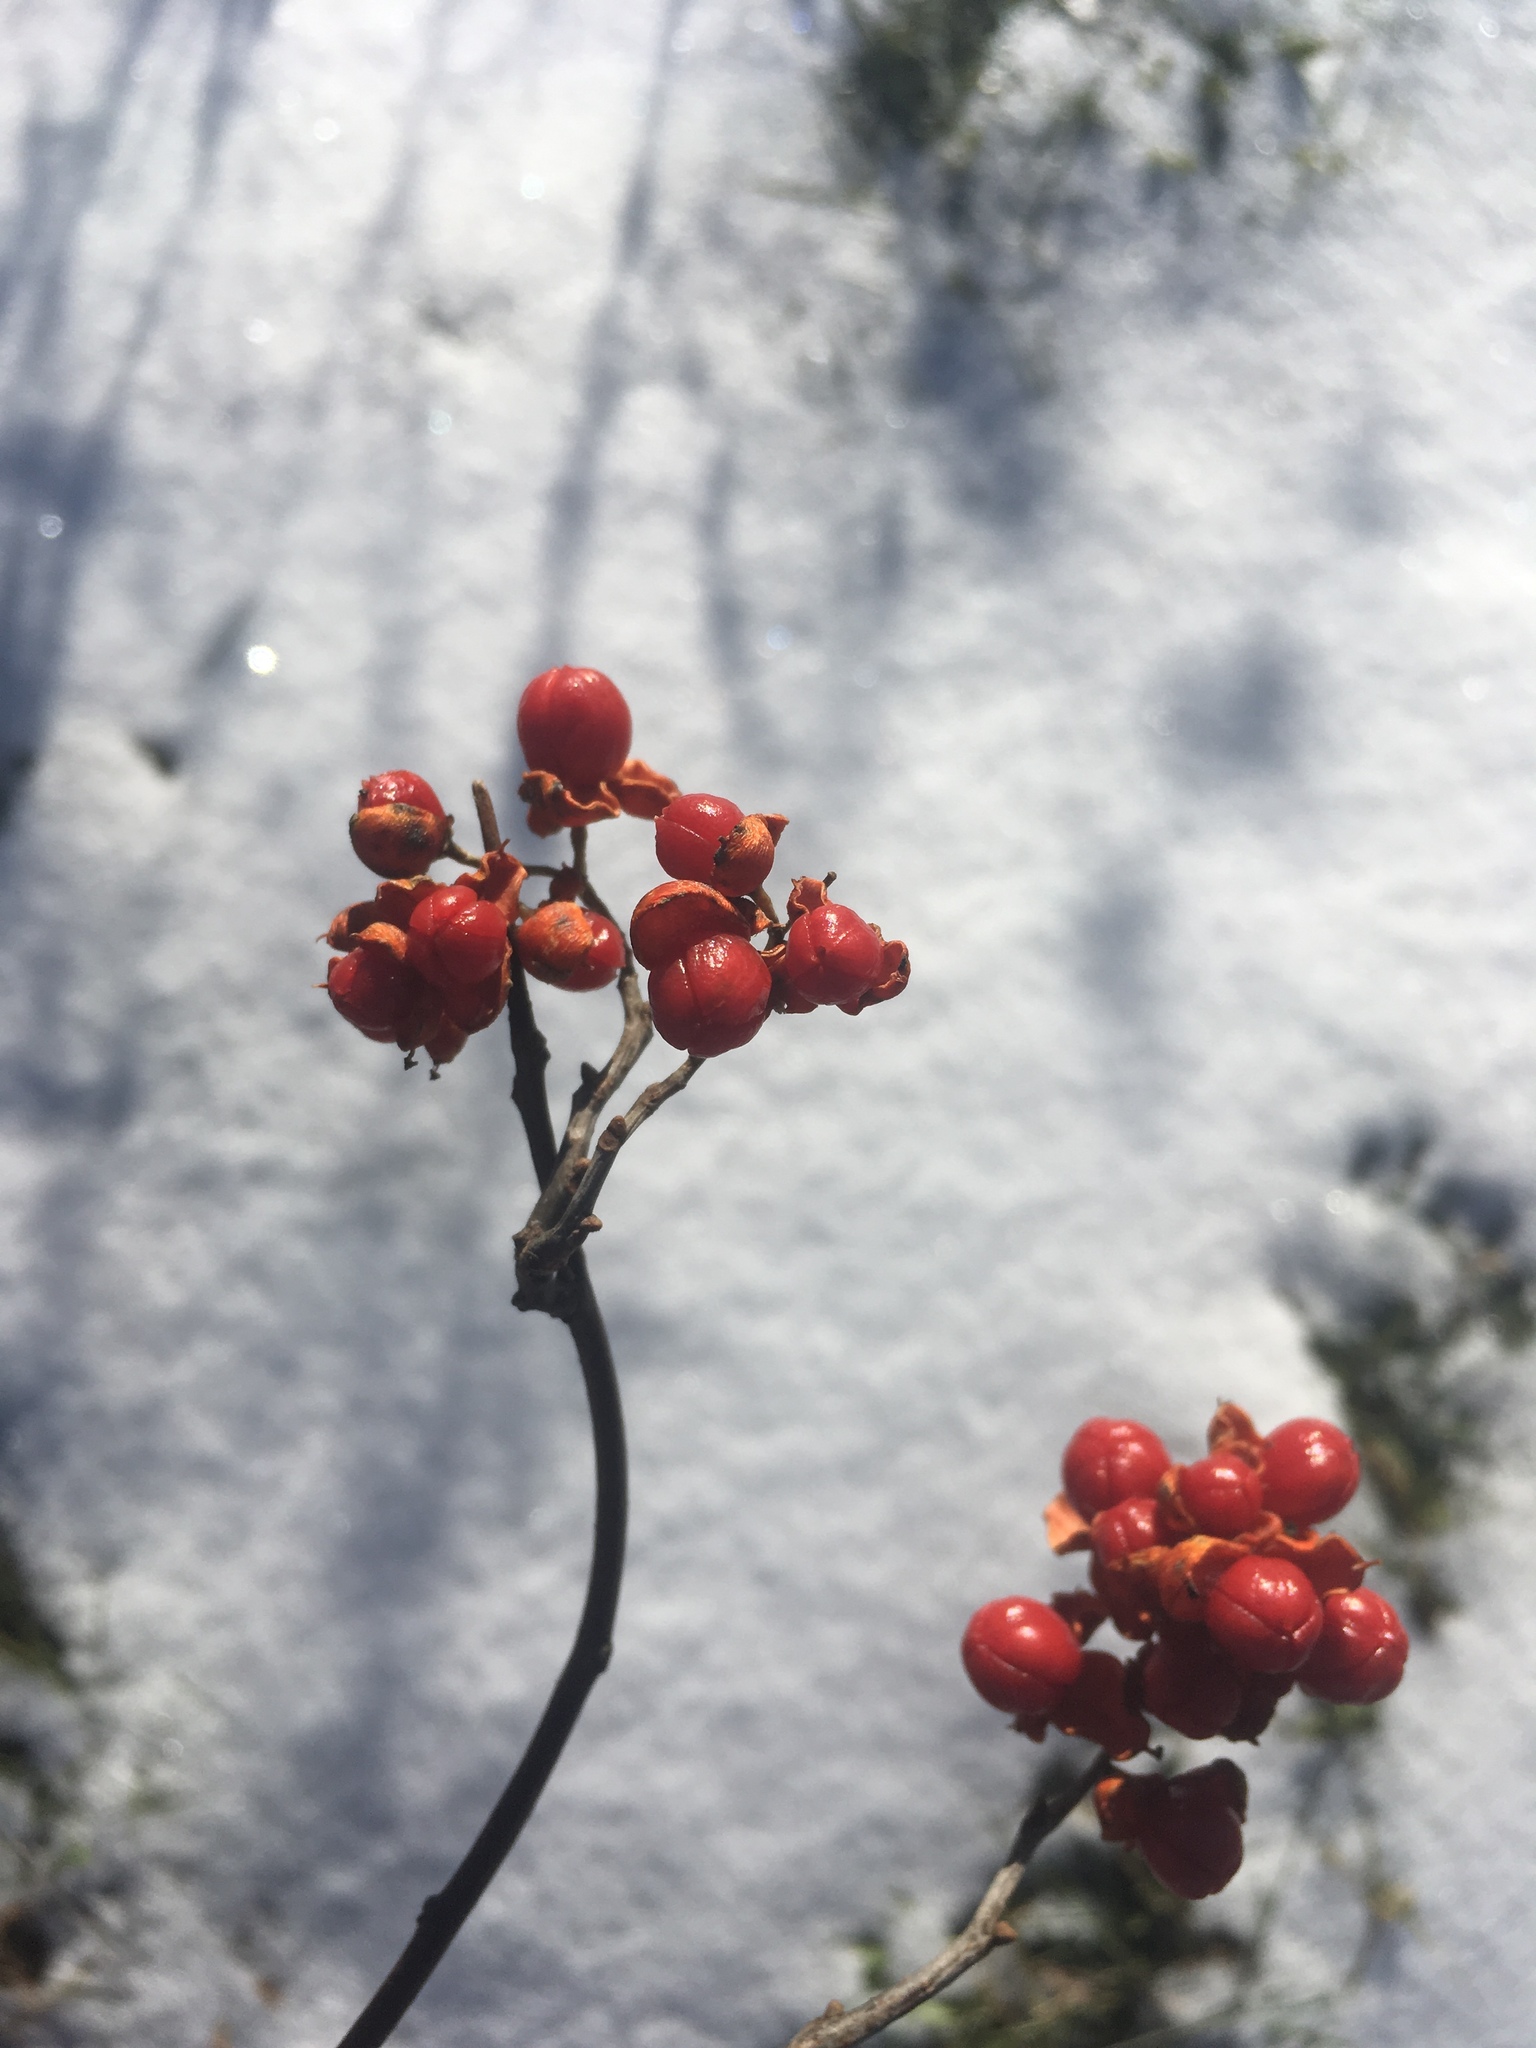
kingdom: Plantae
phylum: Tracheophyta
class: Magnoliopsida
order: Celastrales
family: Celastraceae
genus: Celastrus
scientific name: Celastrus scandens
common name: American bittersweet
